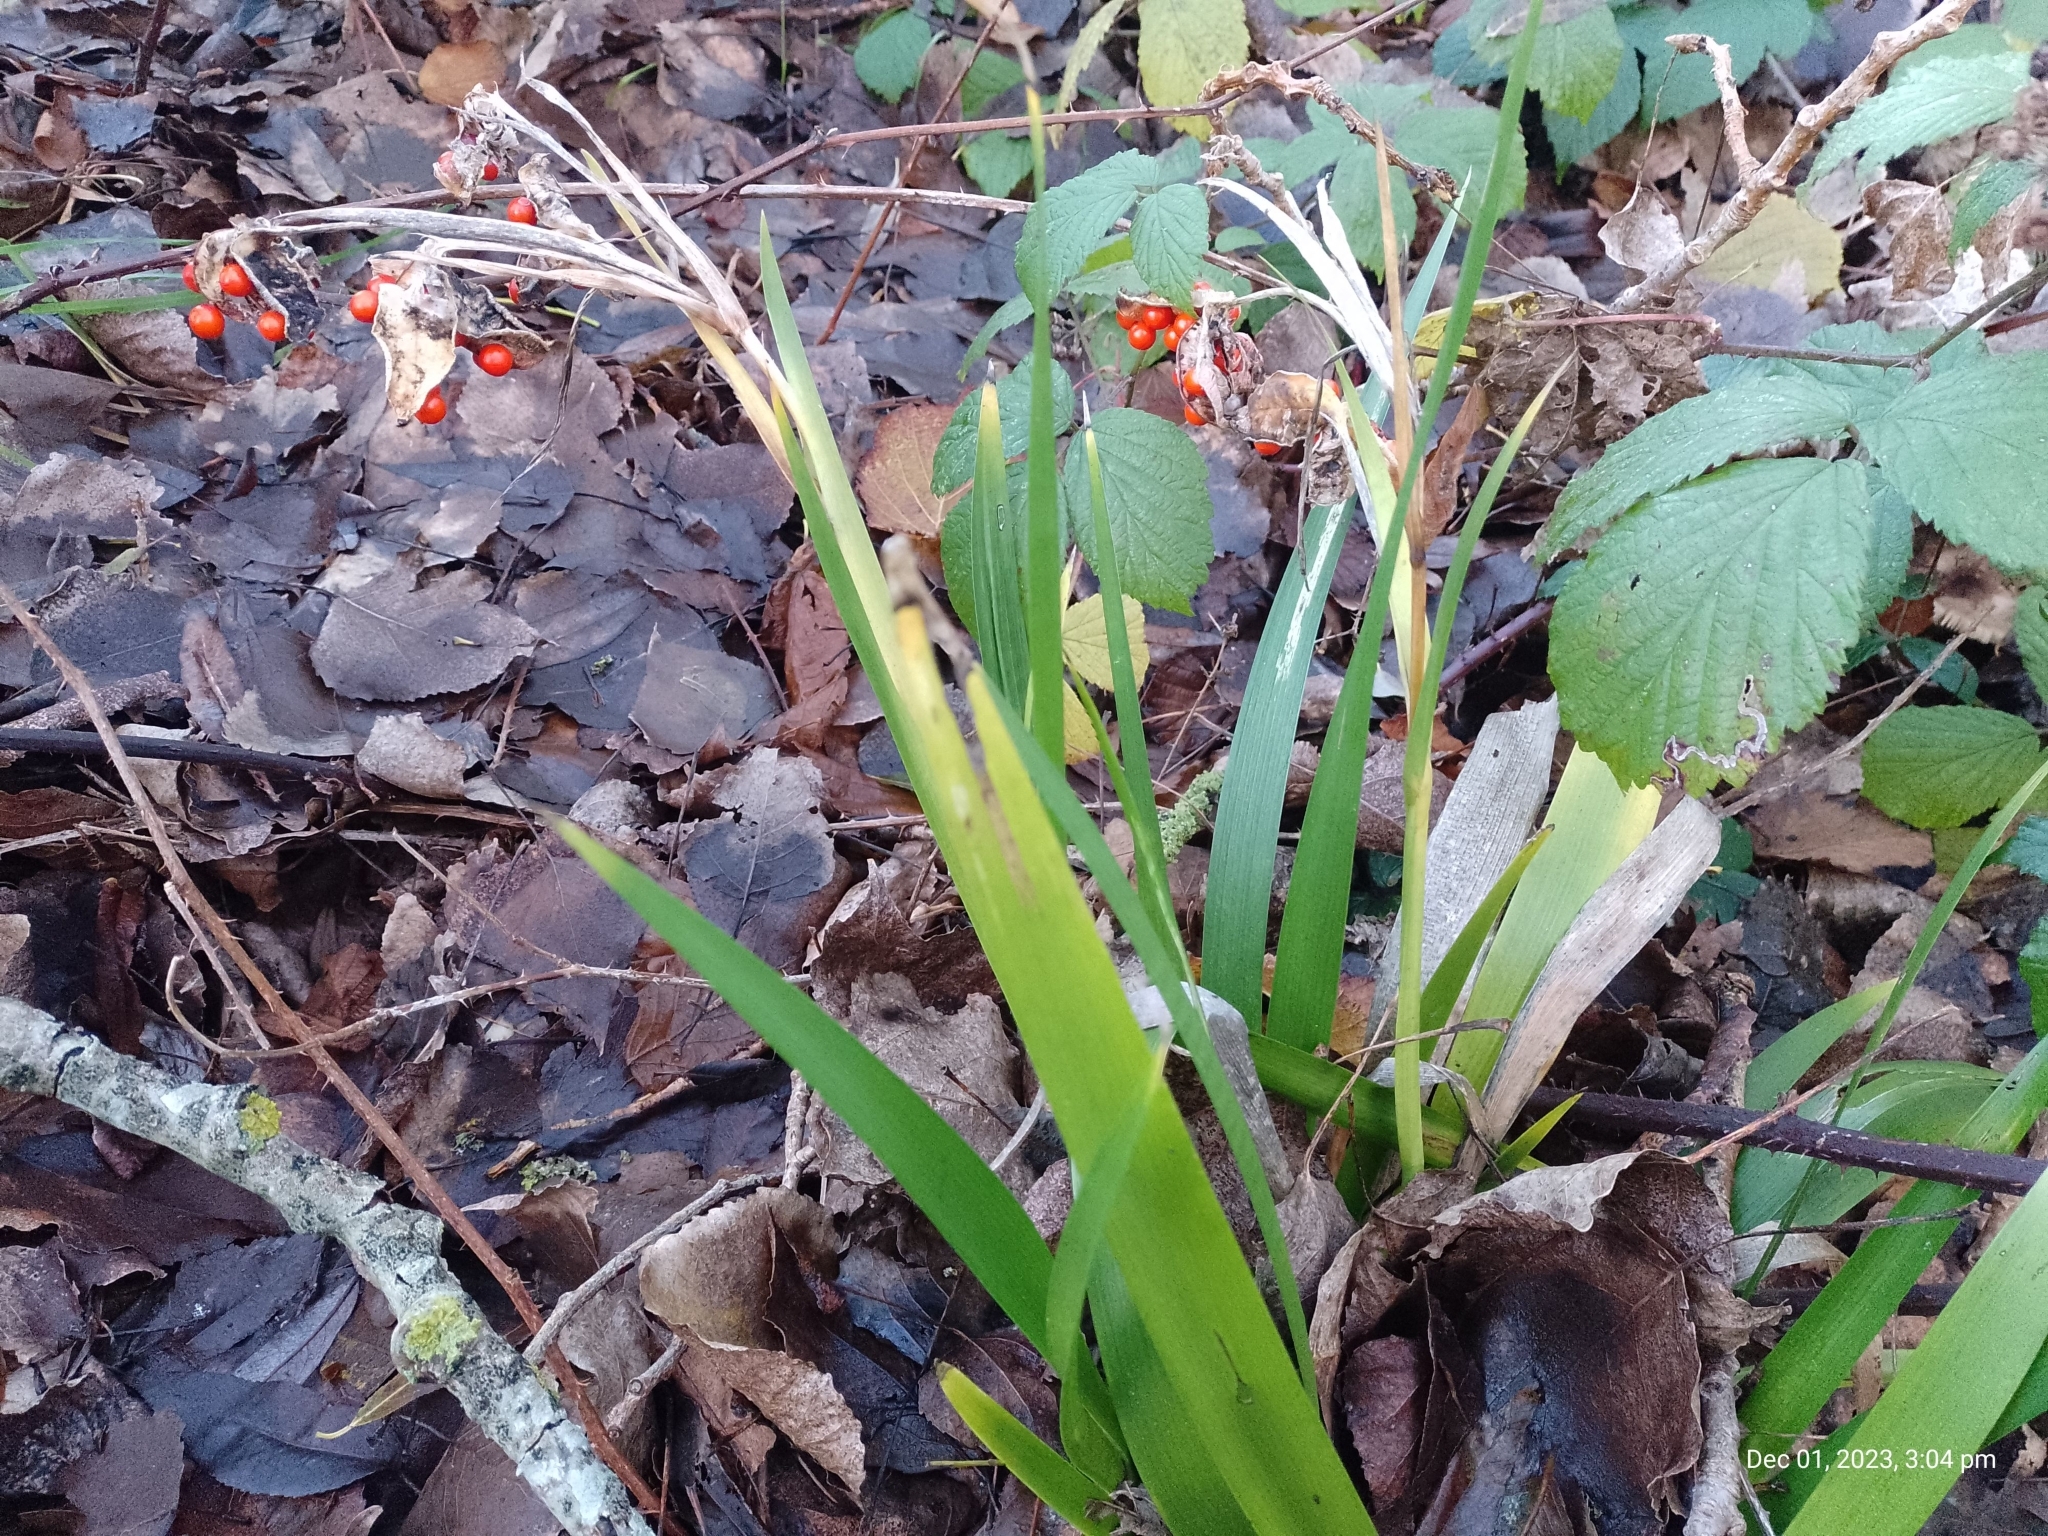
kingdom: Plantae
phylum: Tracheophyta
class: Liliopsida
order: Asparagales
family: Iridaceae
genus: Iris
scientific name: Iris foetidissima
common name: Stinking iris
